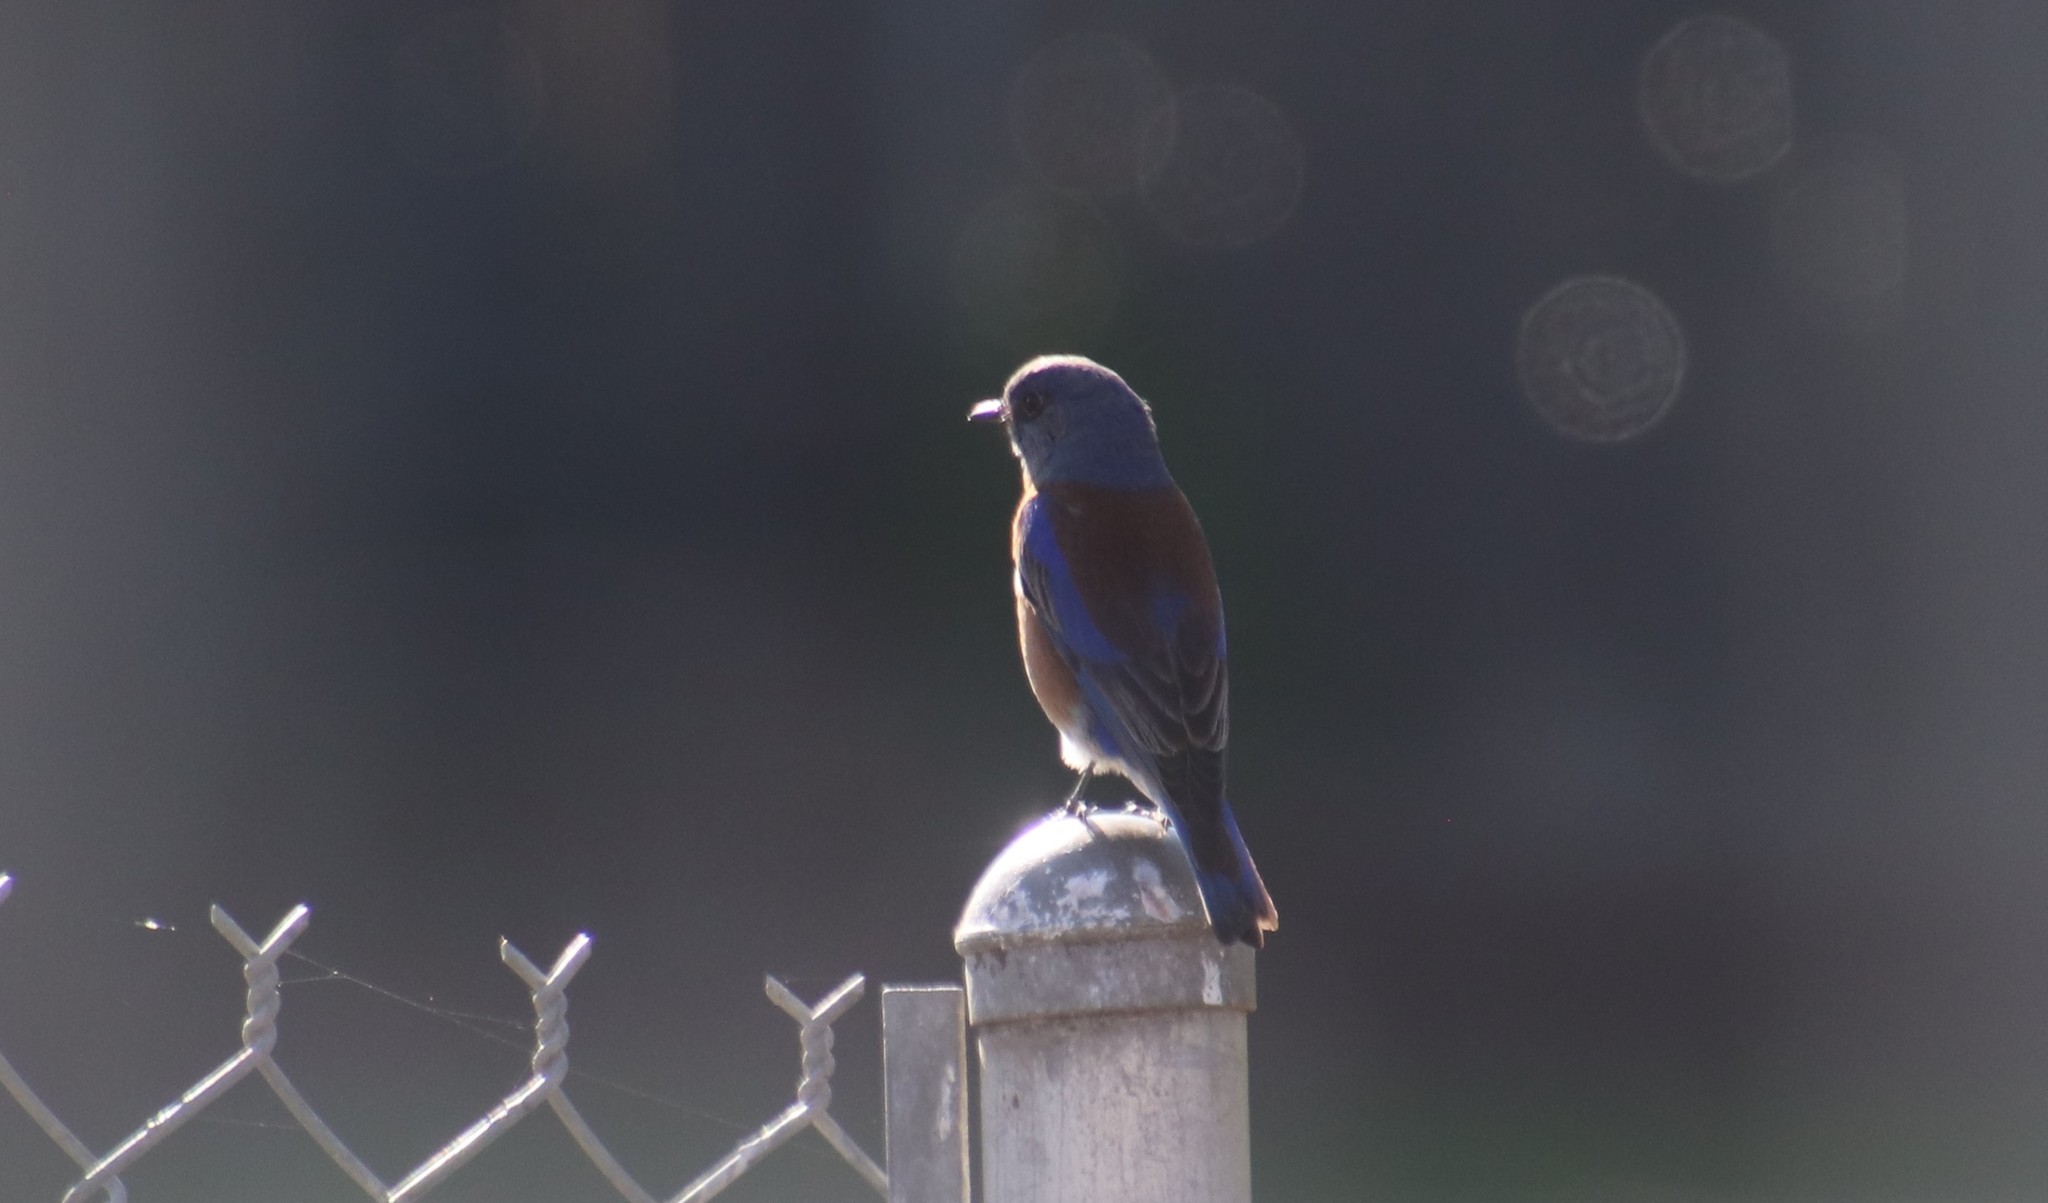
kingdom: Animalia
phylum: Chordata
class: Aves
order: Passeriformes
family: Turdidae
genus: Sialia
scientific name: Sialia mexicana
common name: Western bluebird
